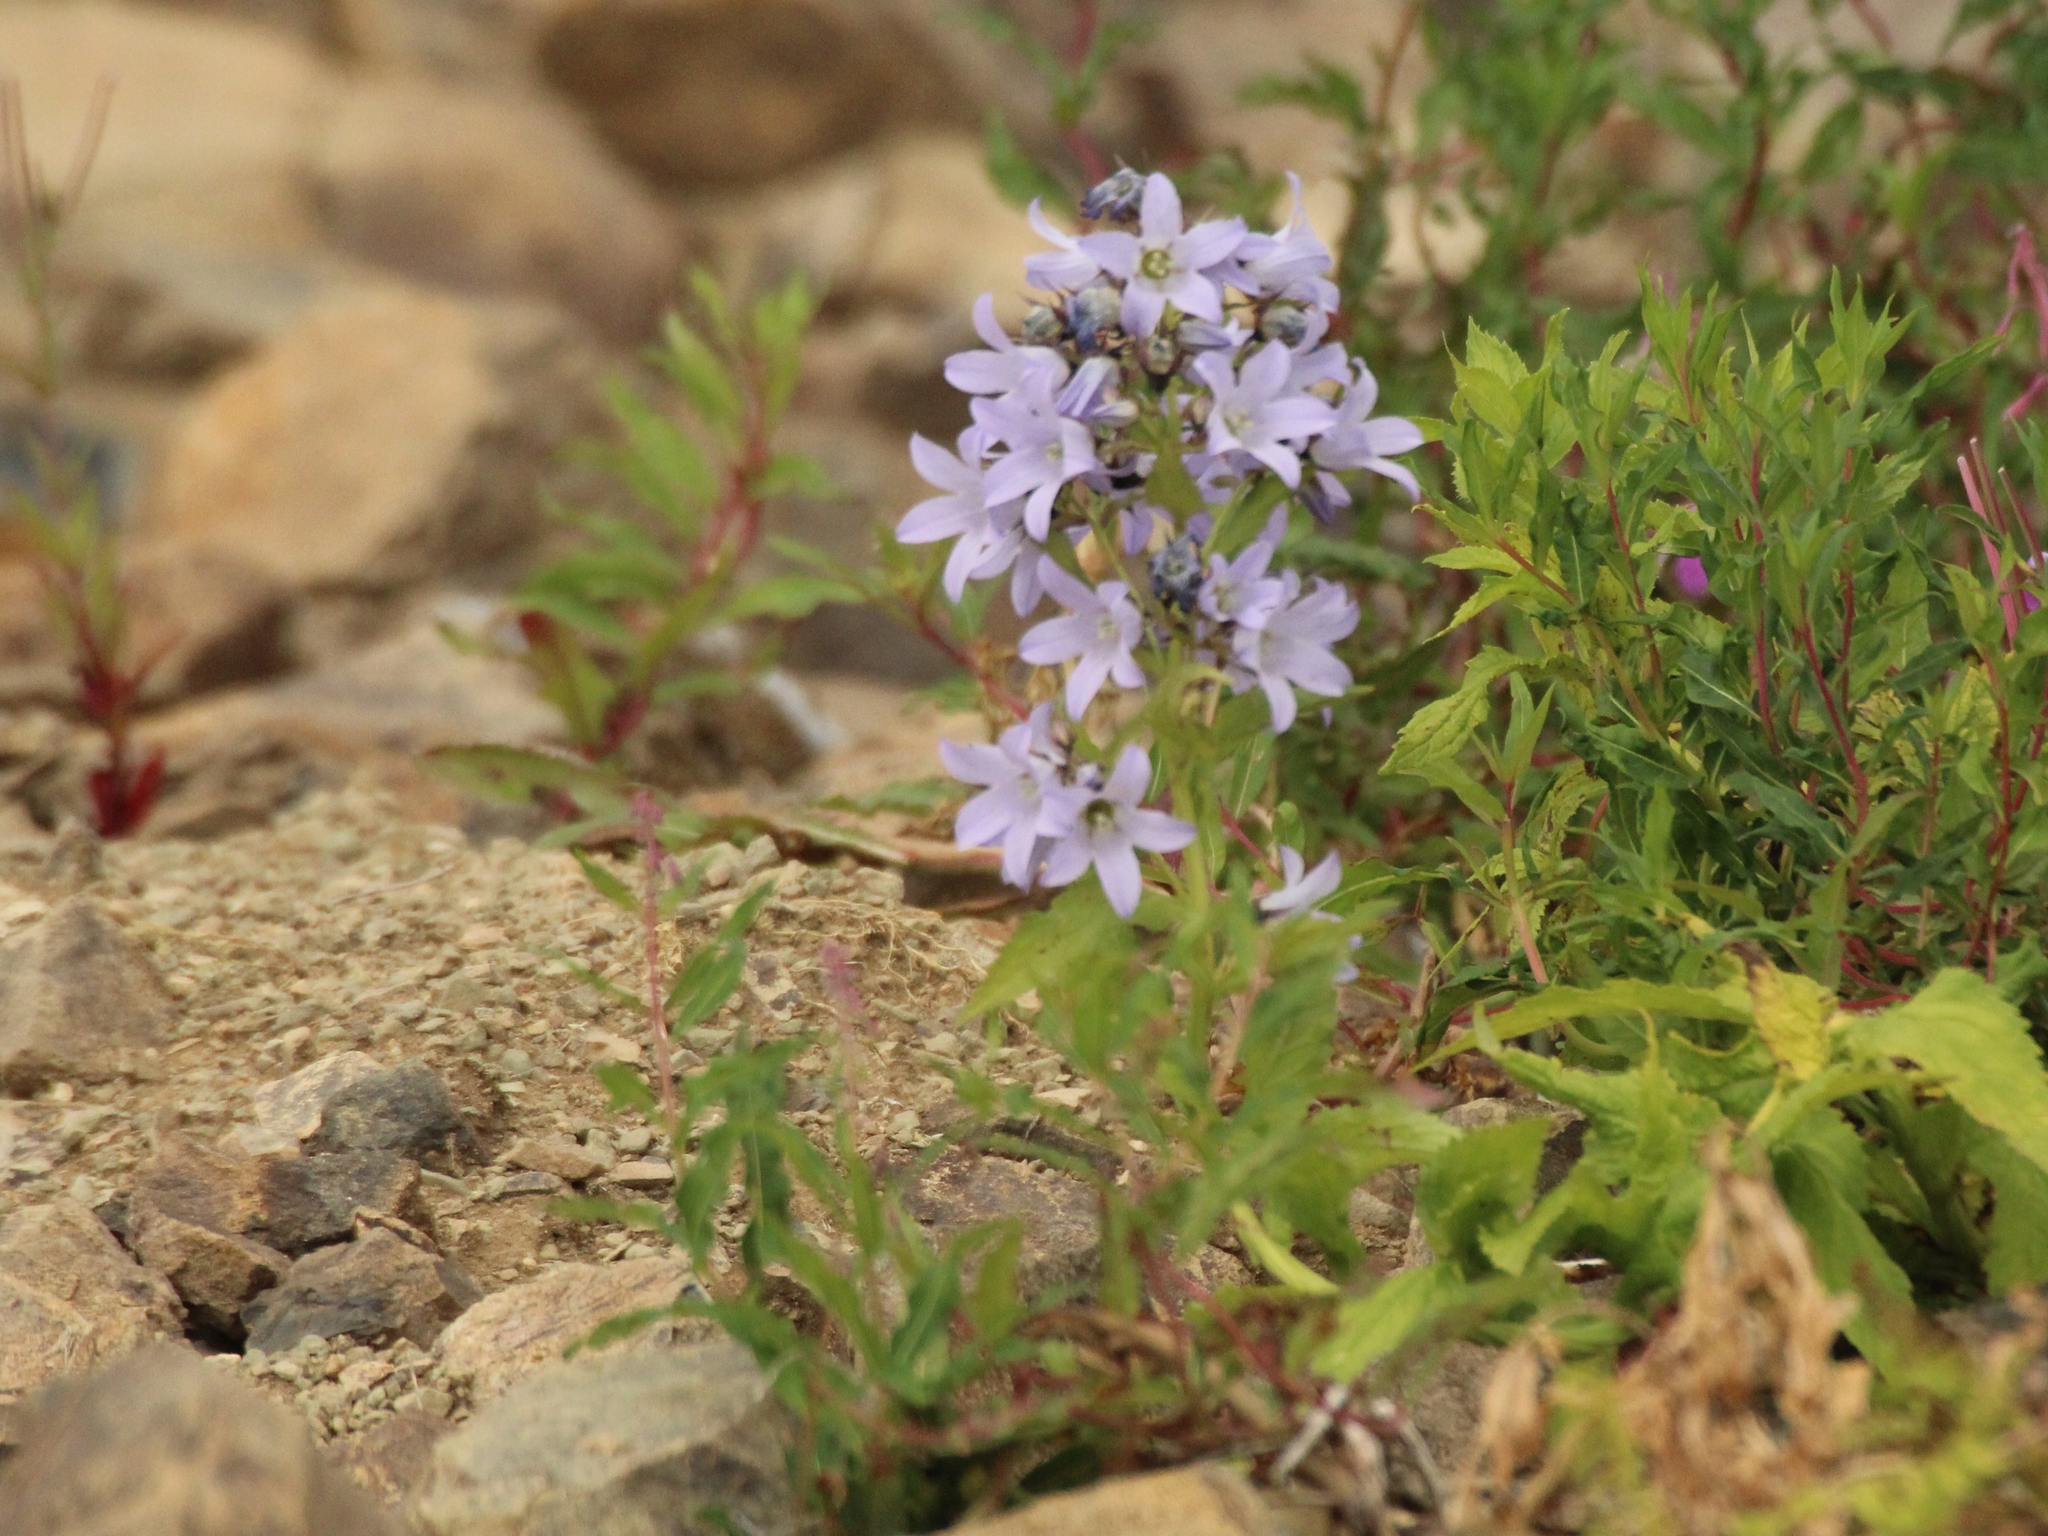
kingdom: Plantae
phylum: Tracheophyta
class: Magnoliopsida
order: Asterales
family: Campanulaceae
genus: Campanula
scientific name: Campanula lactiflora
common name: Milky bellflower
